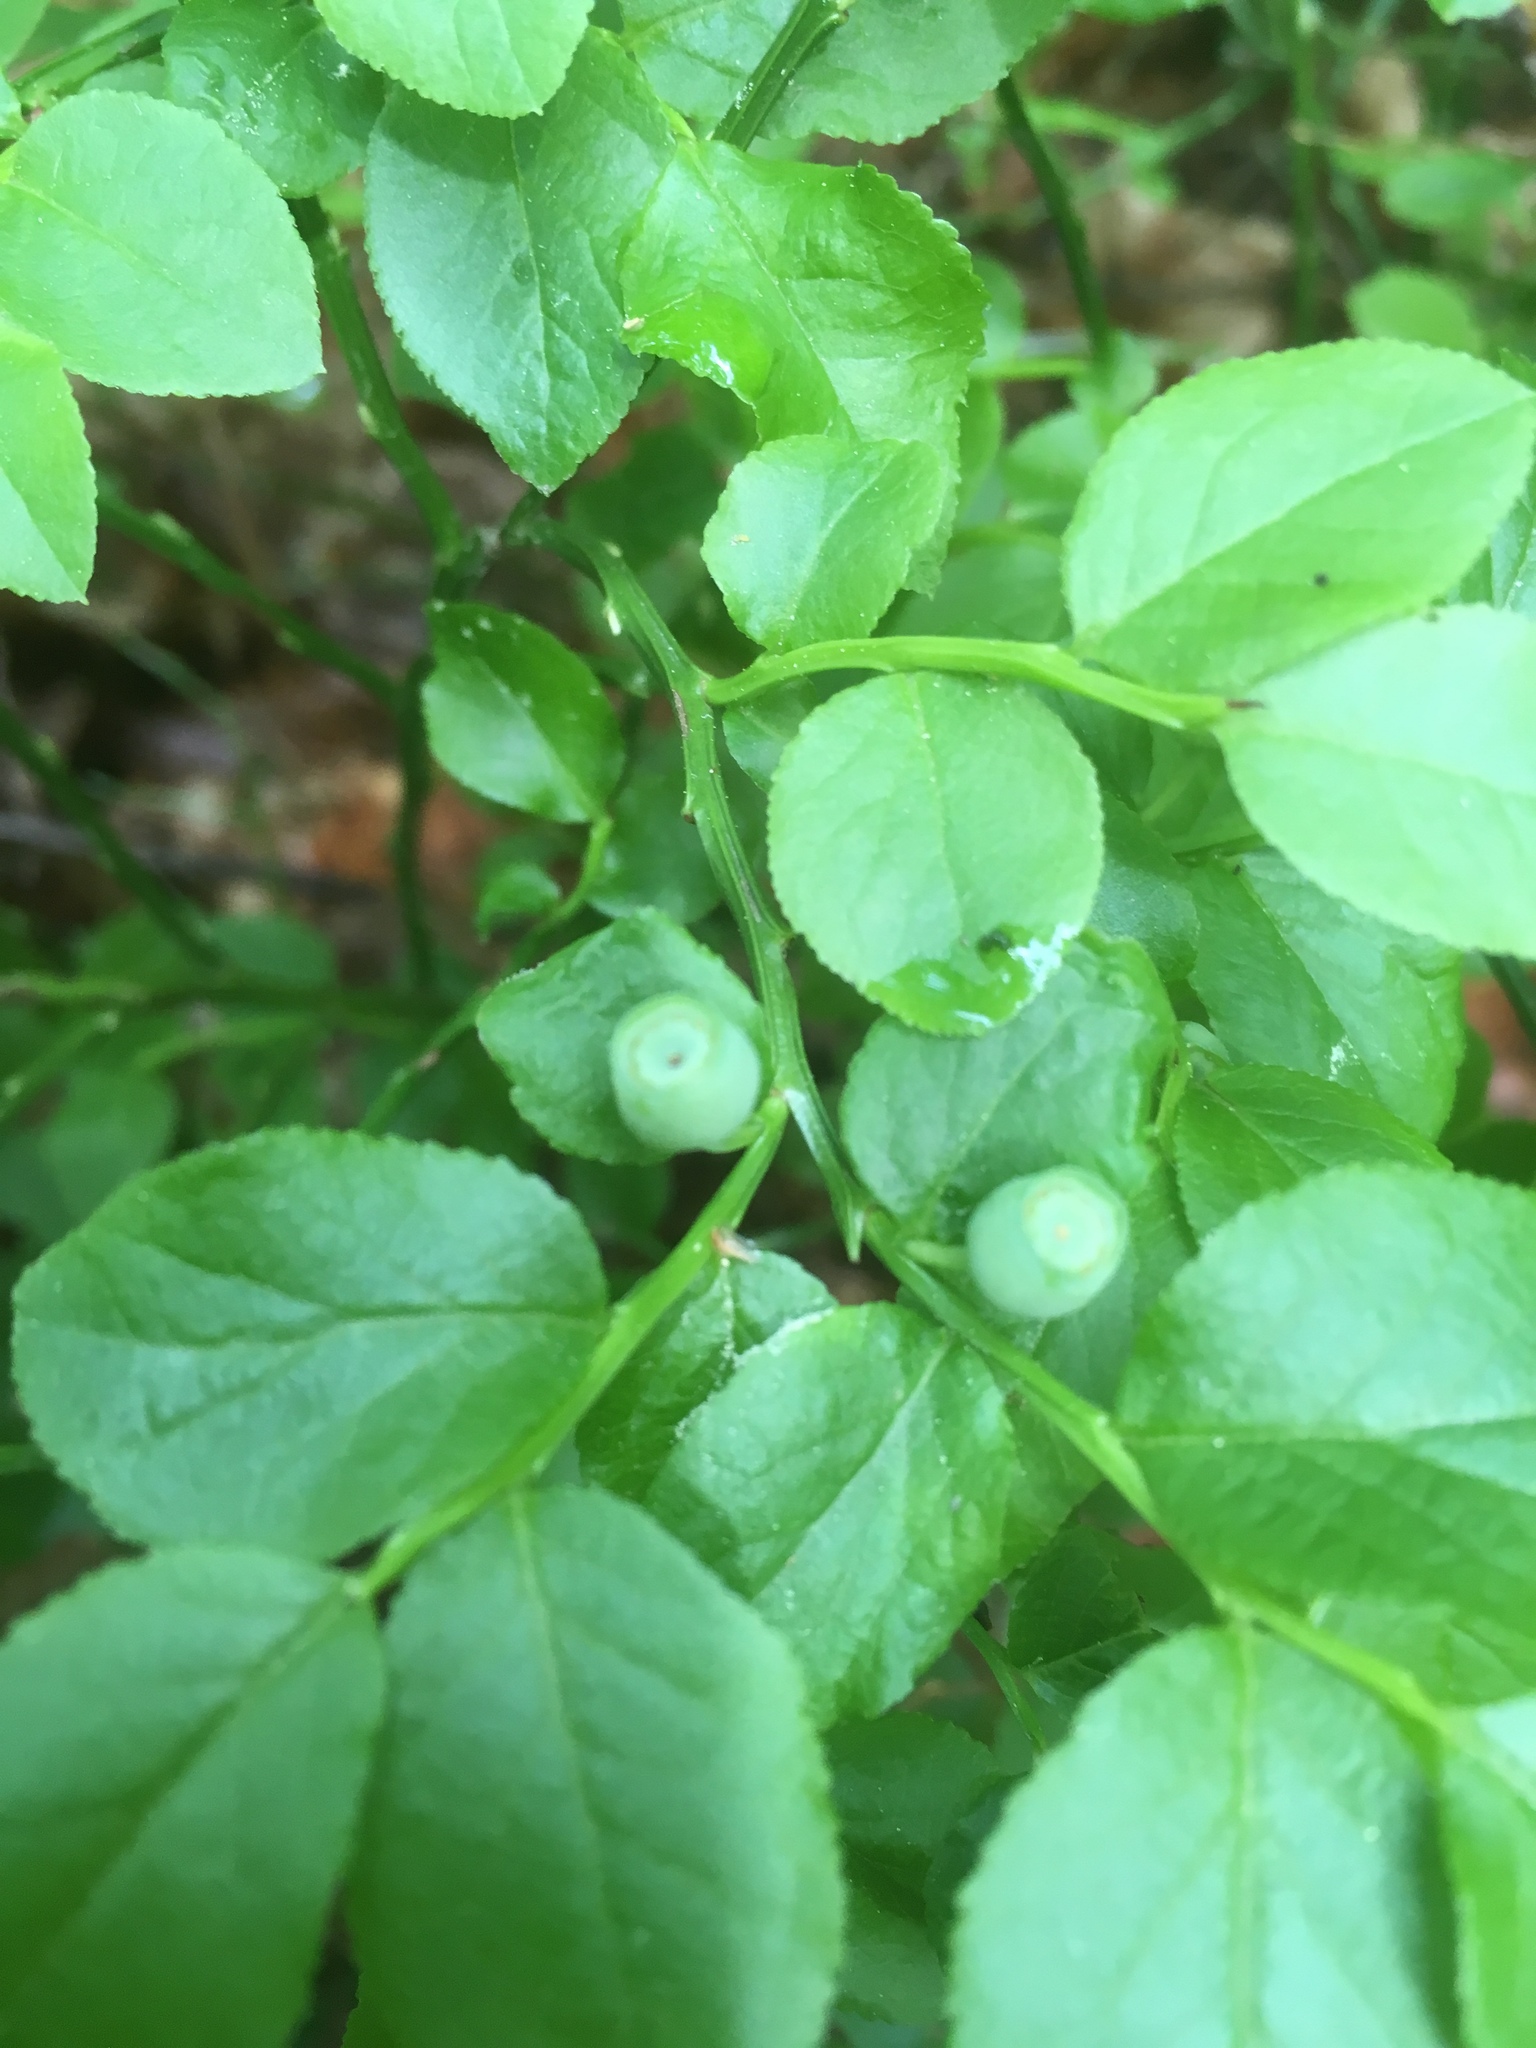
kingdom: Plantae
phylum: Tracheophyta
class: Magnoliopsida
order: Ericales
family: Ericaceae
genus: Vaccinium
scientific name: Vaccinium myrtillus
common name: Bilberry
